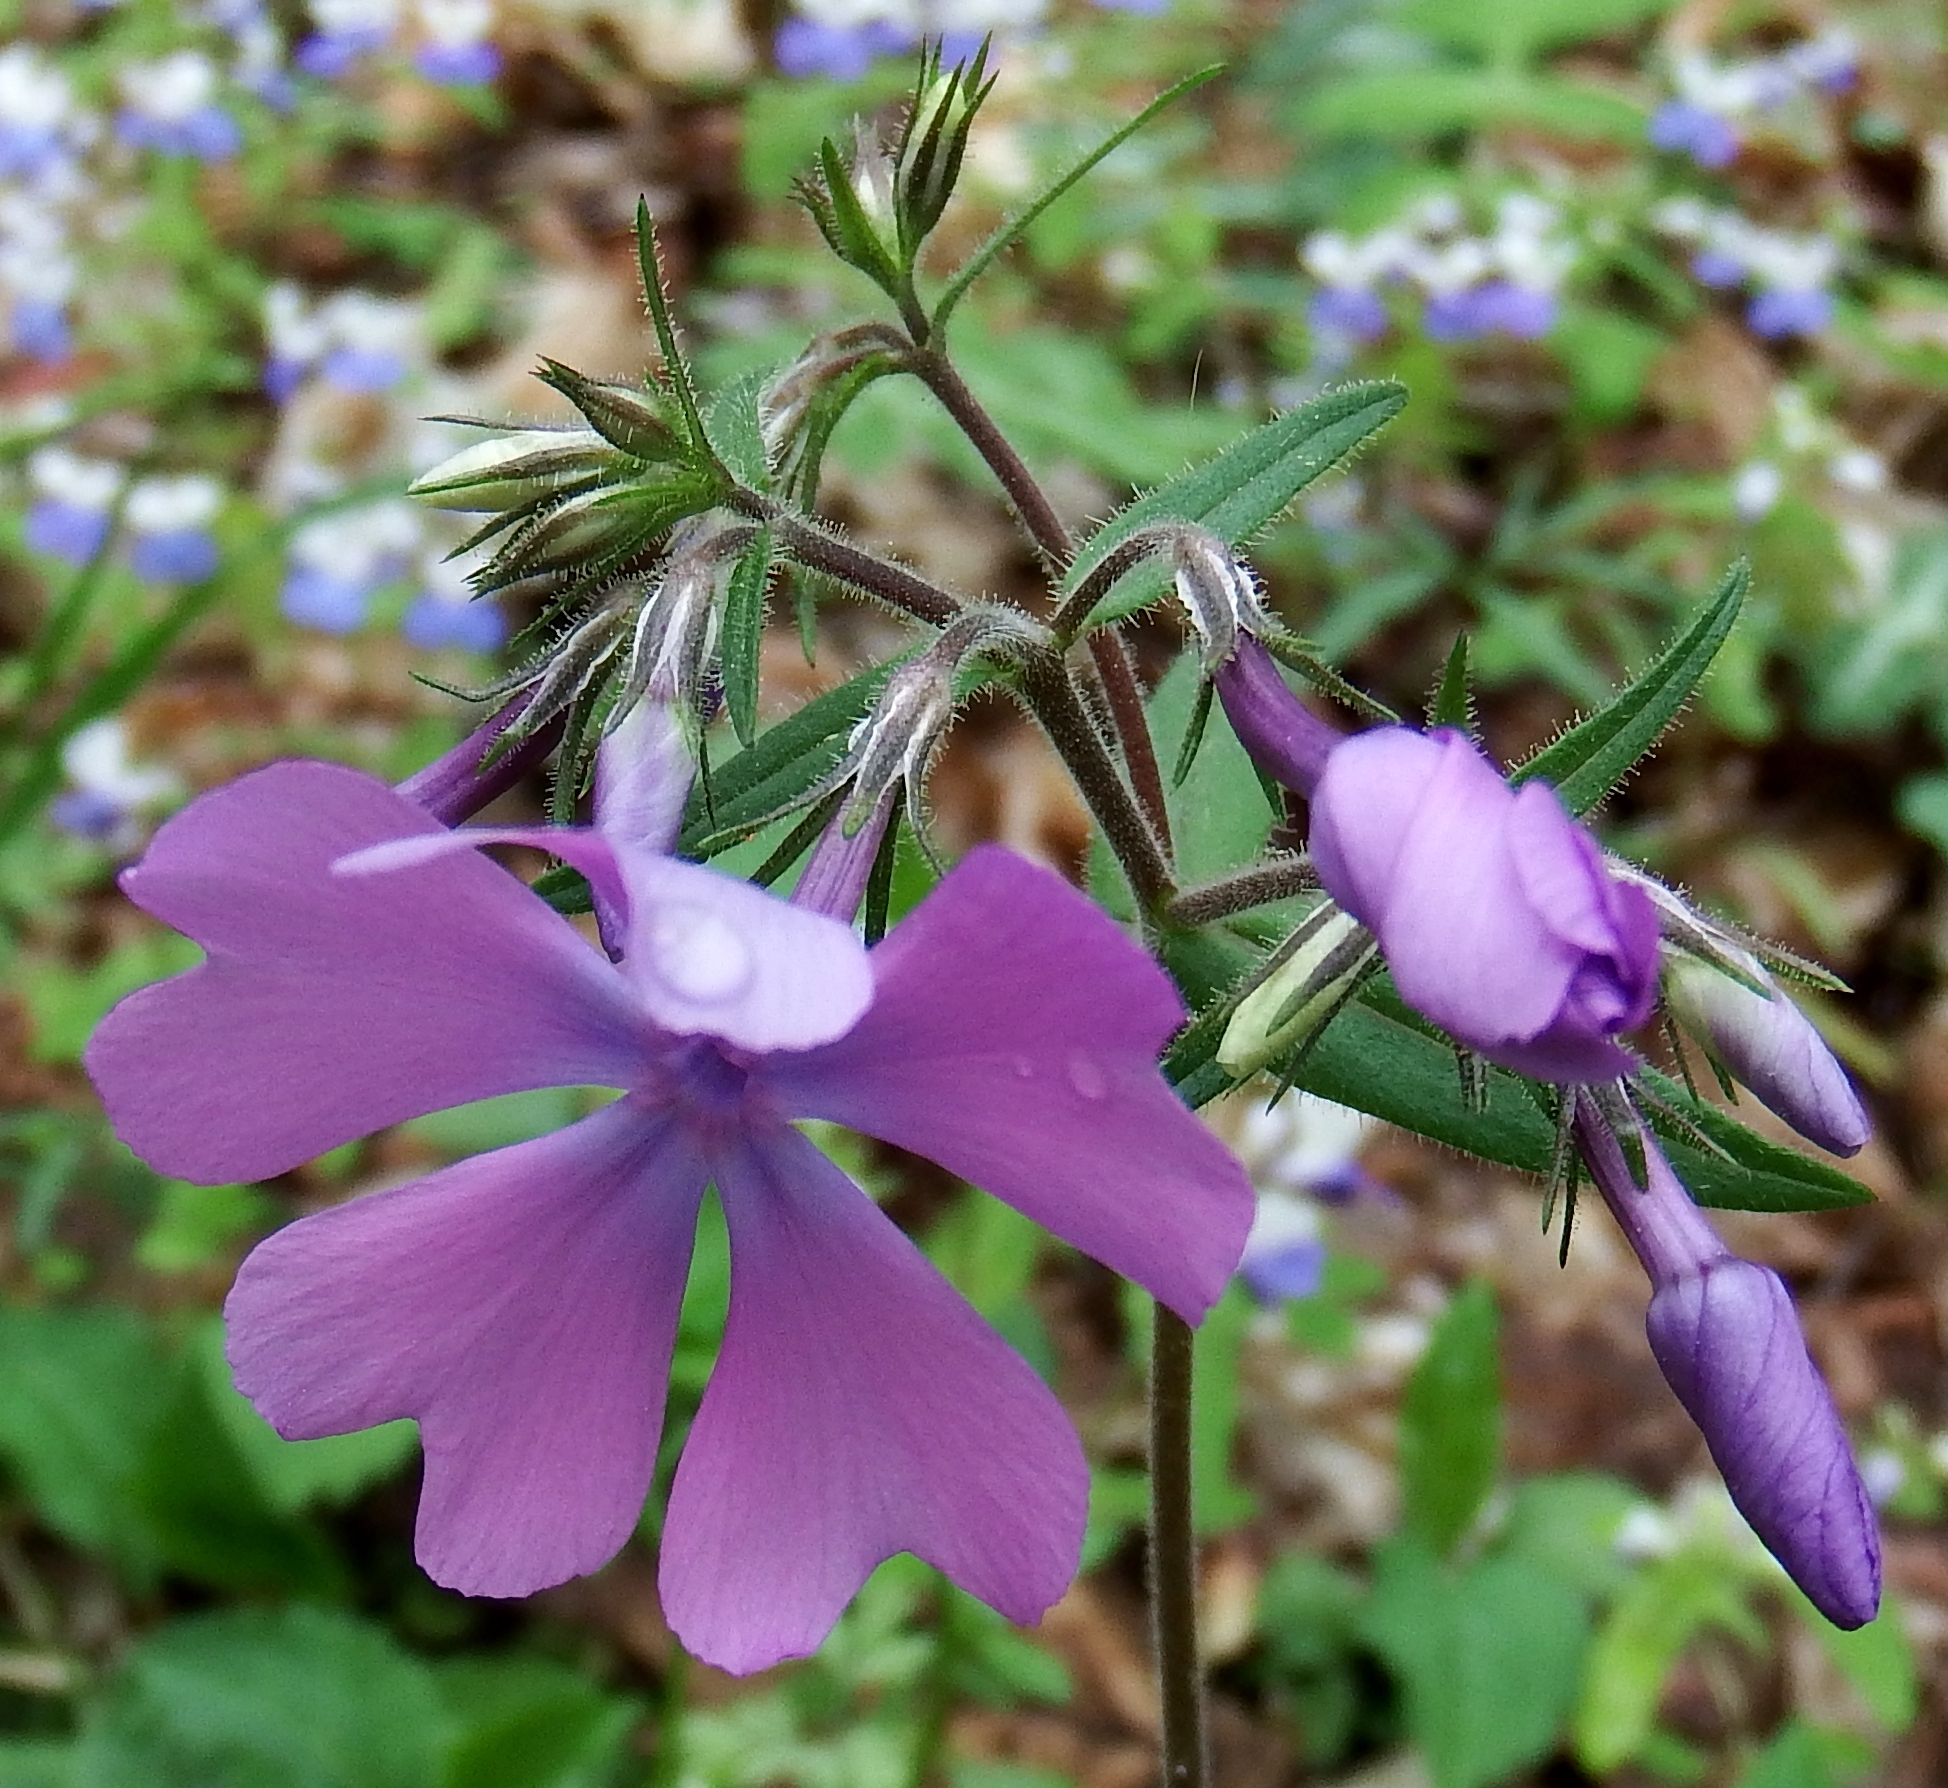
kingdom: Plantae
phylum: Tracheophyta
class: Magnoliopsida
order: Ericales
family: Polemoniaceae
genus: Phlox
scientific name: Phlox divaricata
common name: Blue phlox
